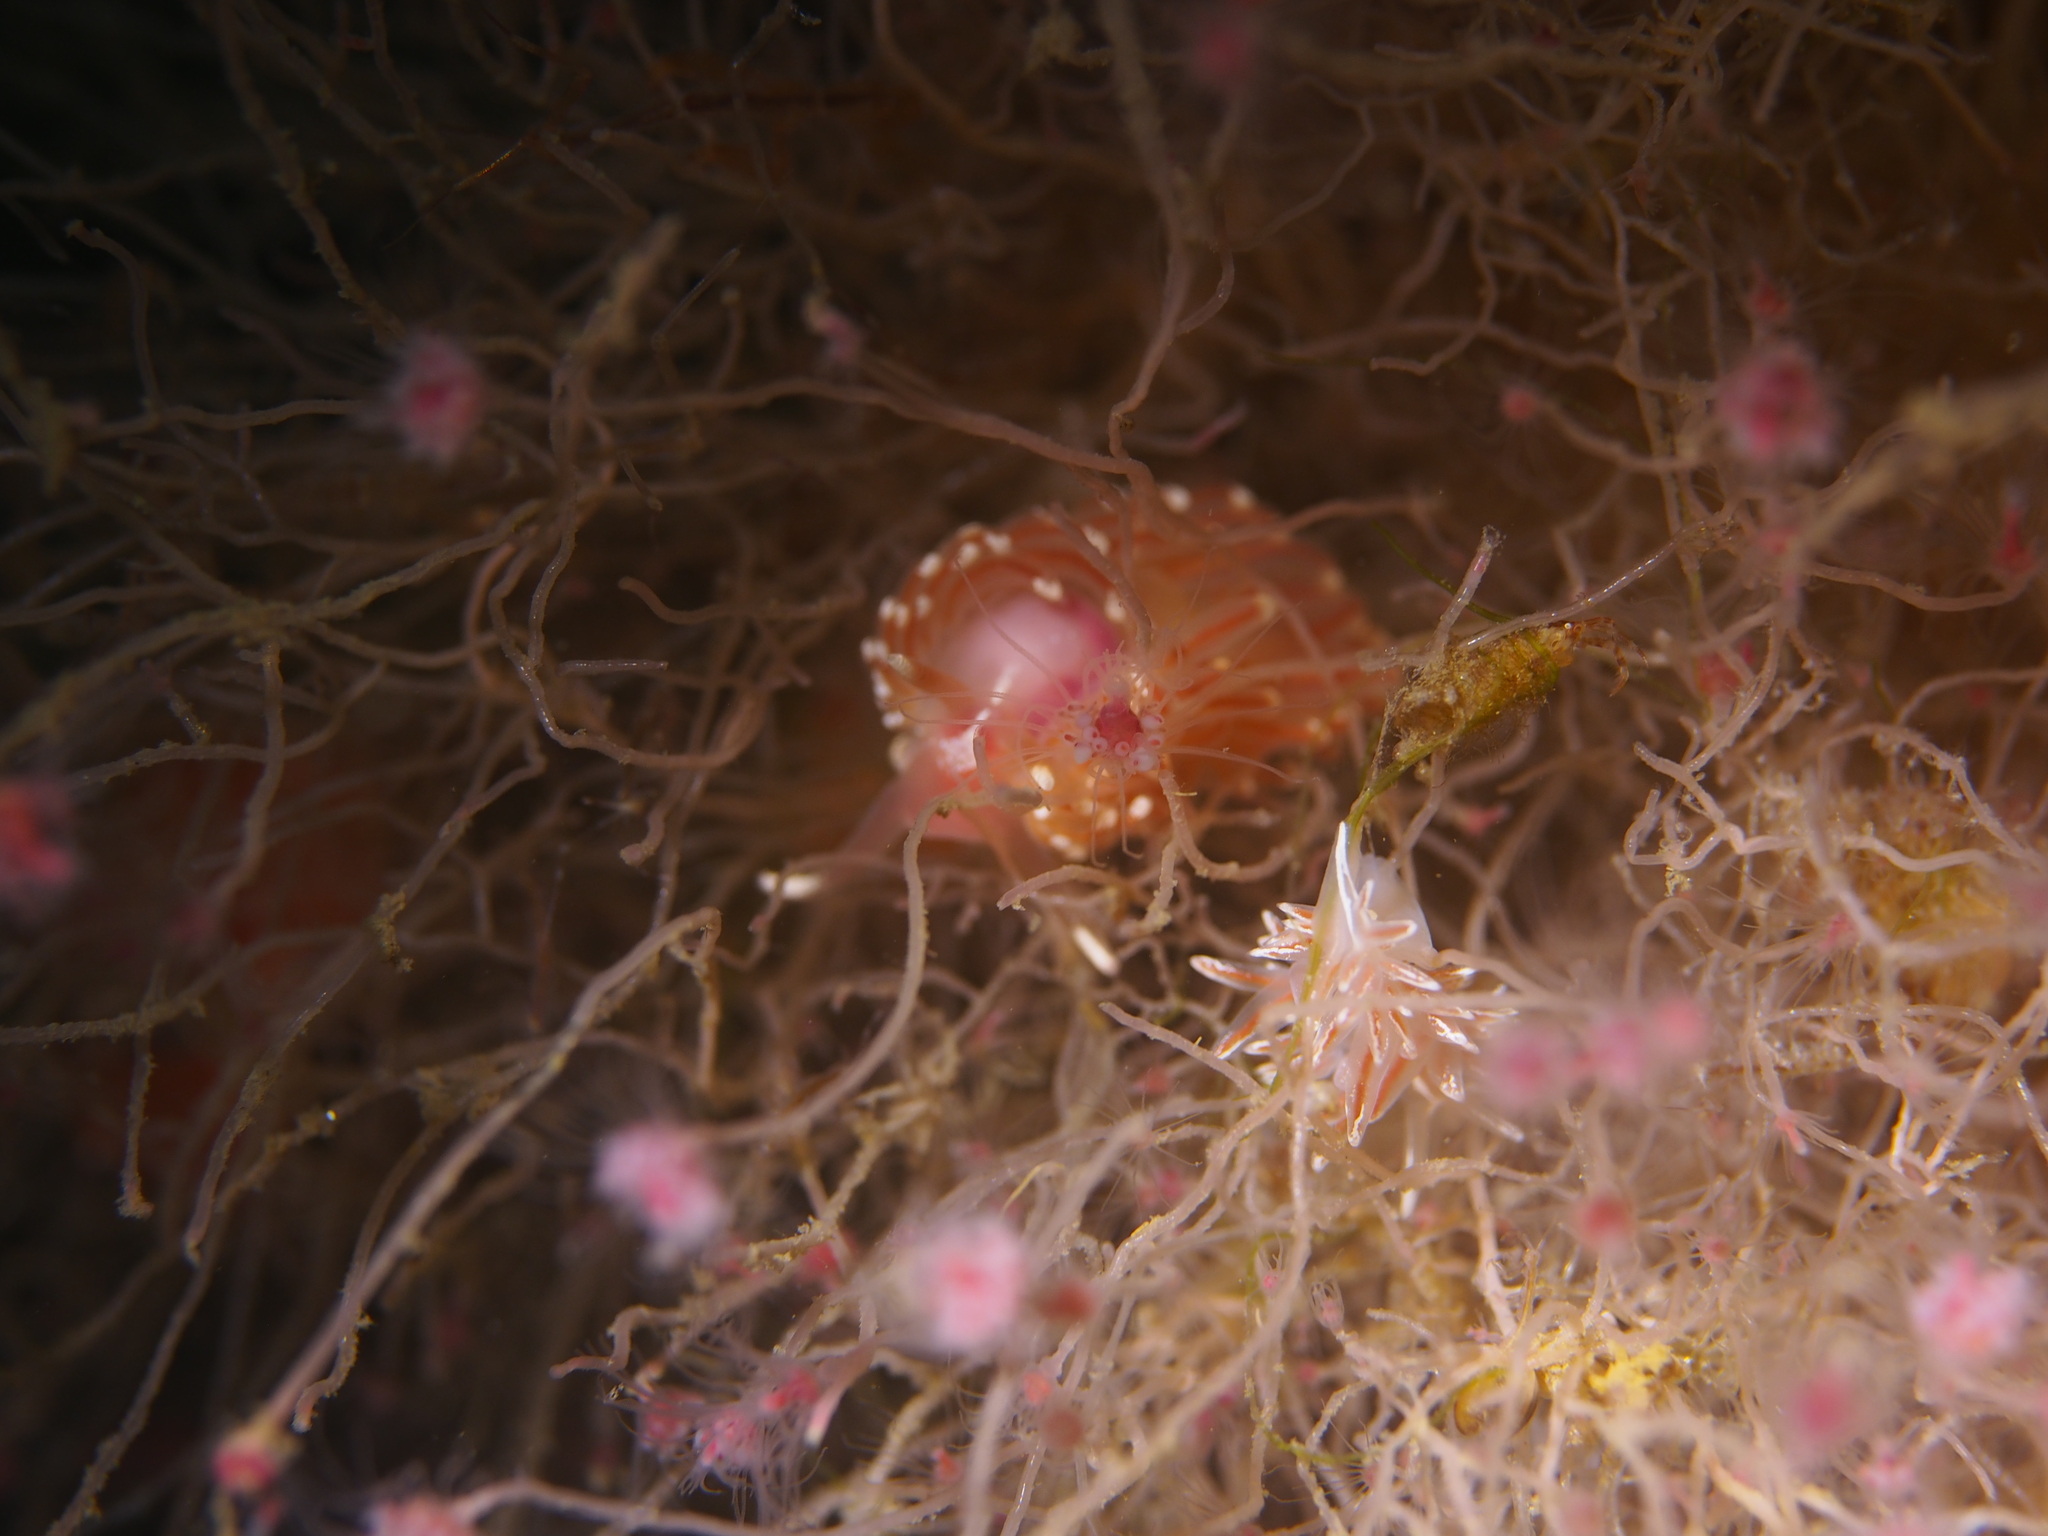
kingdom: Animalia
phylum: Mollusca
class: Gastropoda
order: Nudibranchia
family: Facelinidae
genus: Facelina
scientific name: Facelina bostoniensis
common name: Boston facelina
